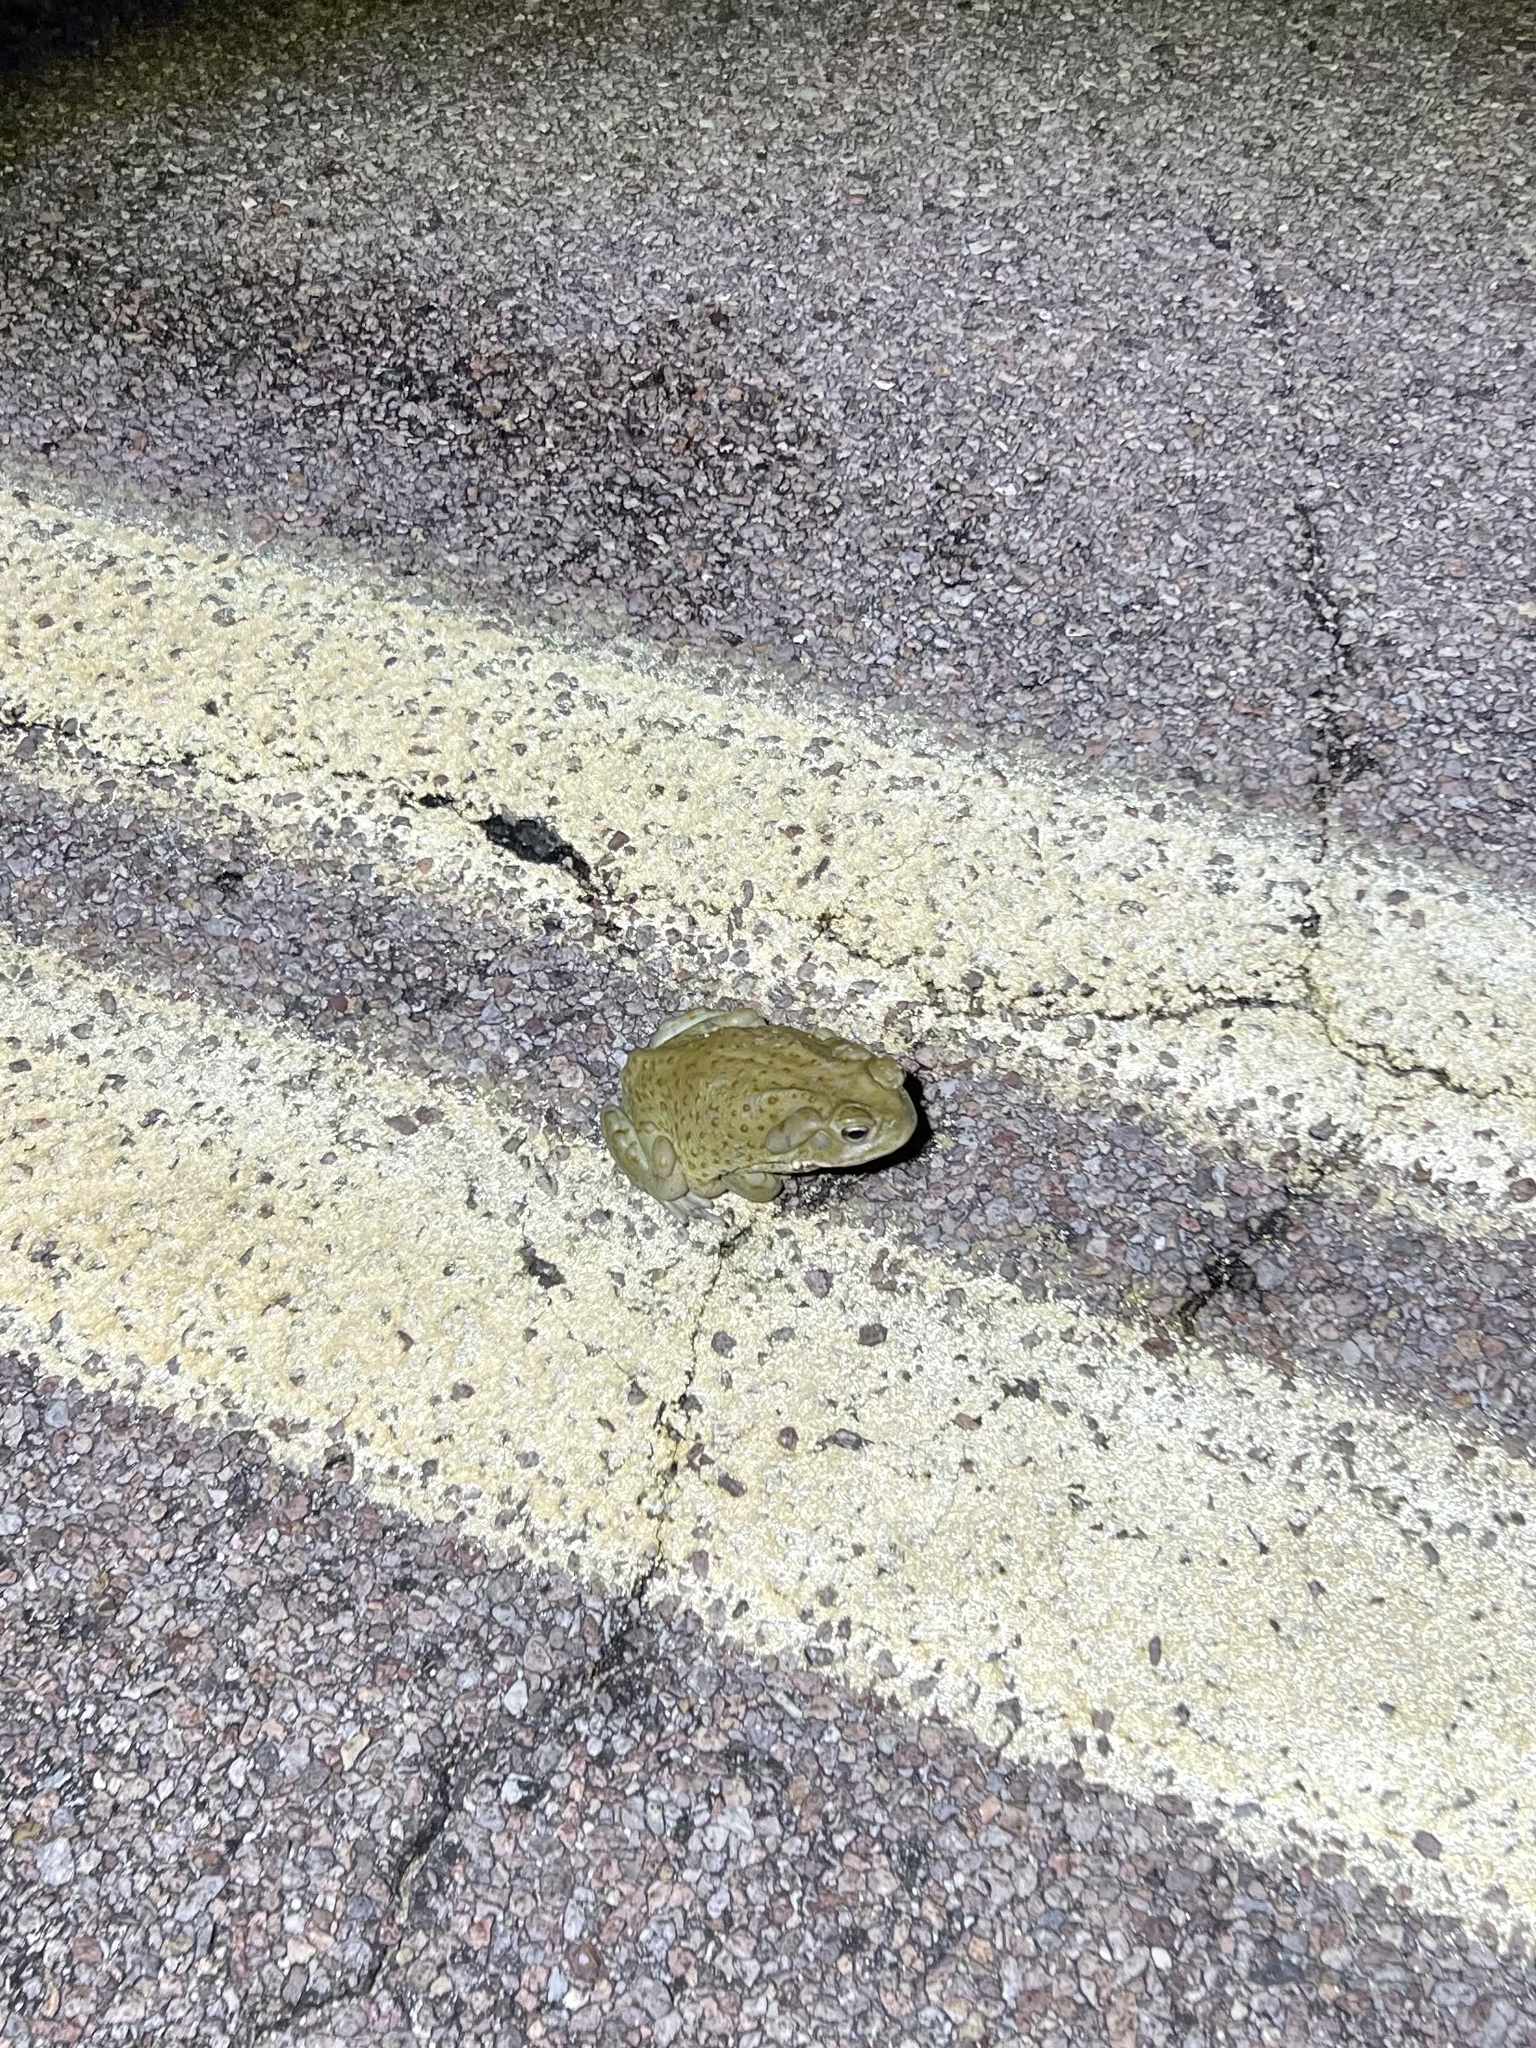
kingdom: Animalia
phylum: Chordata
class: Amphibia
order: Anura
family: Bufonidae
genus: Incilius
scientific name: Incilius alvarius
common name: Sonoran desert toad
